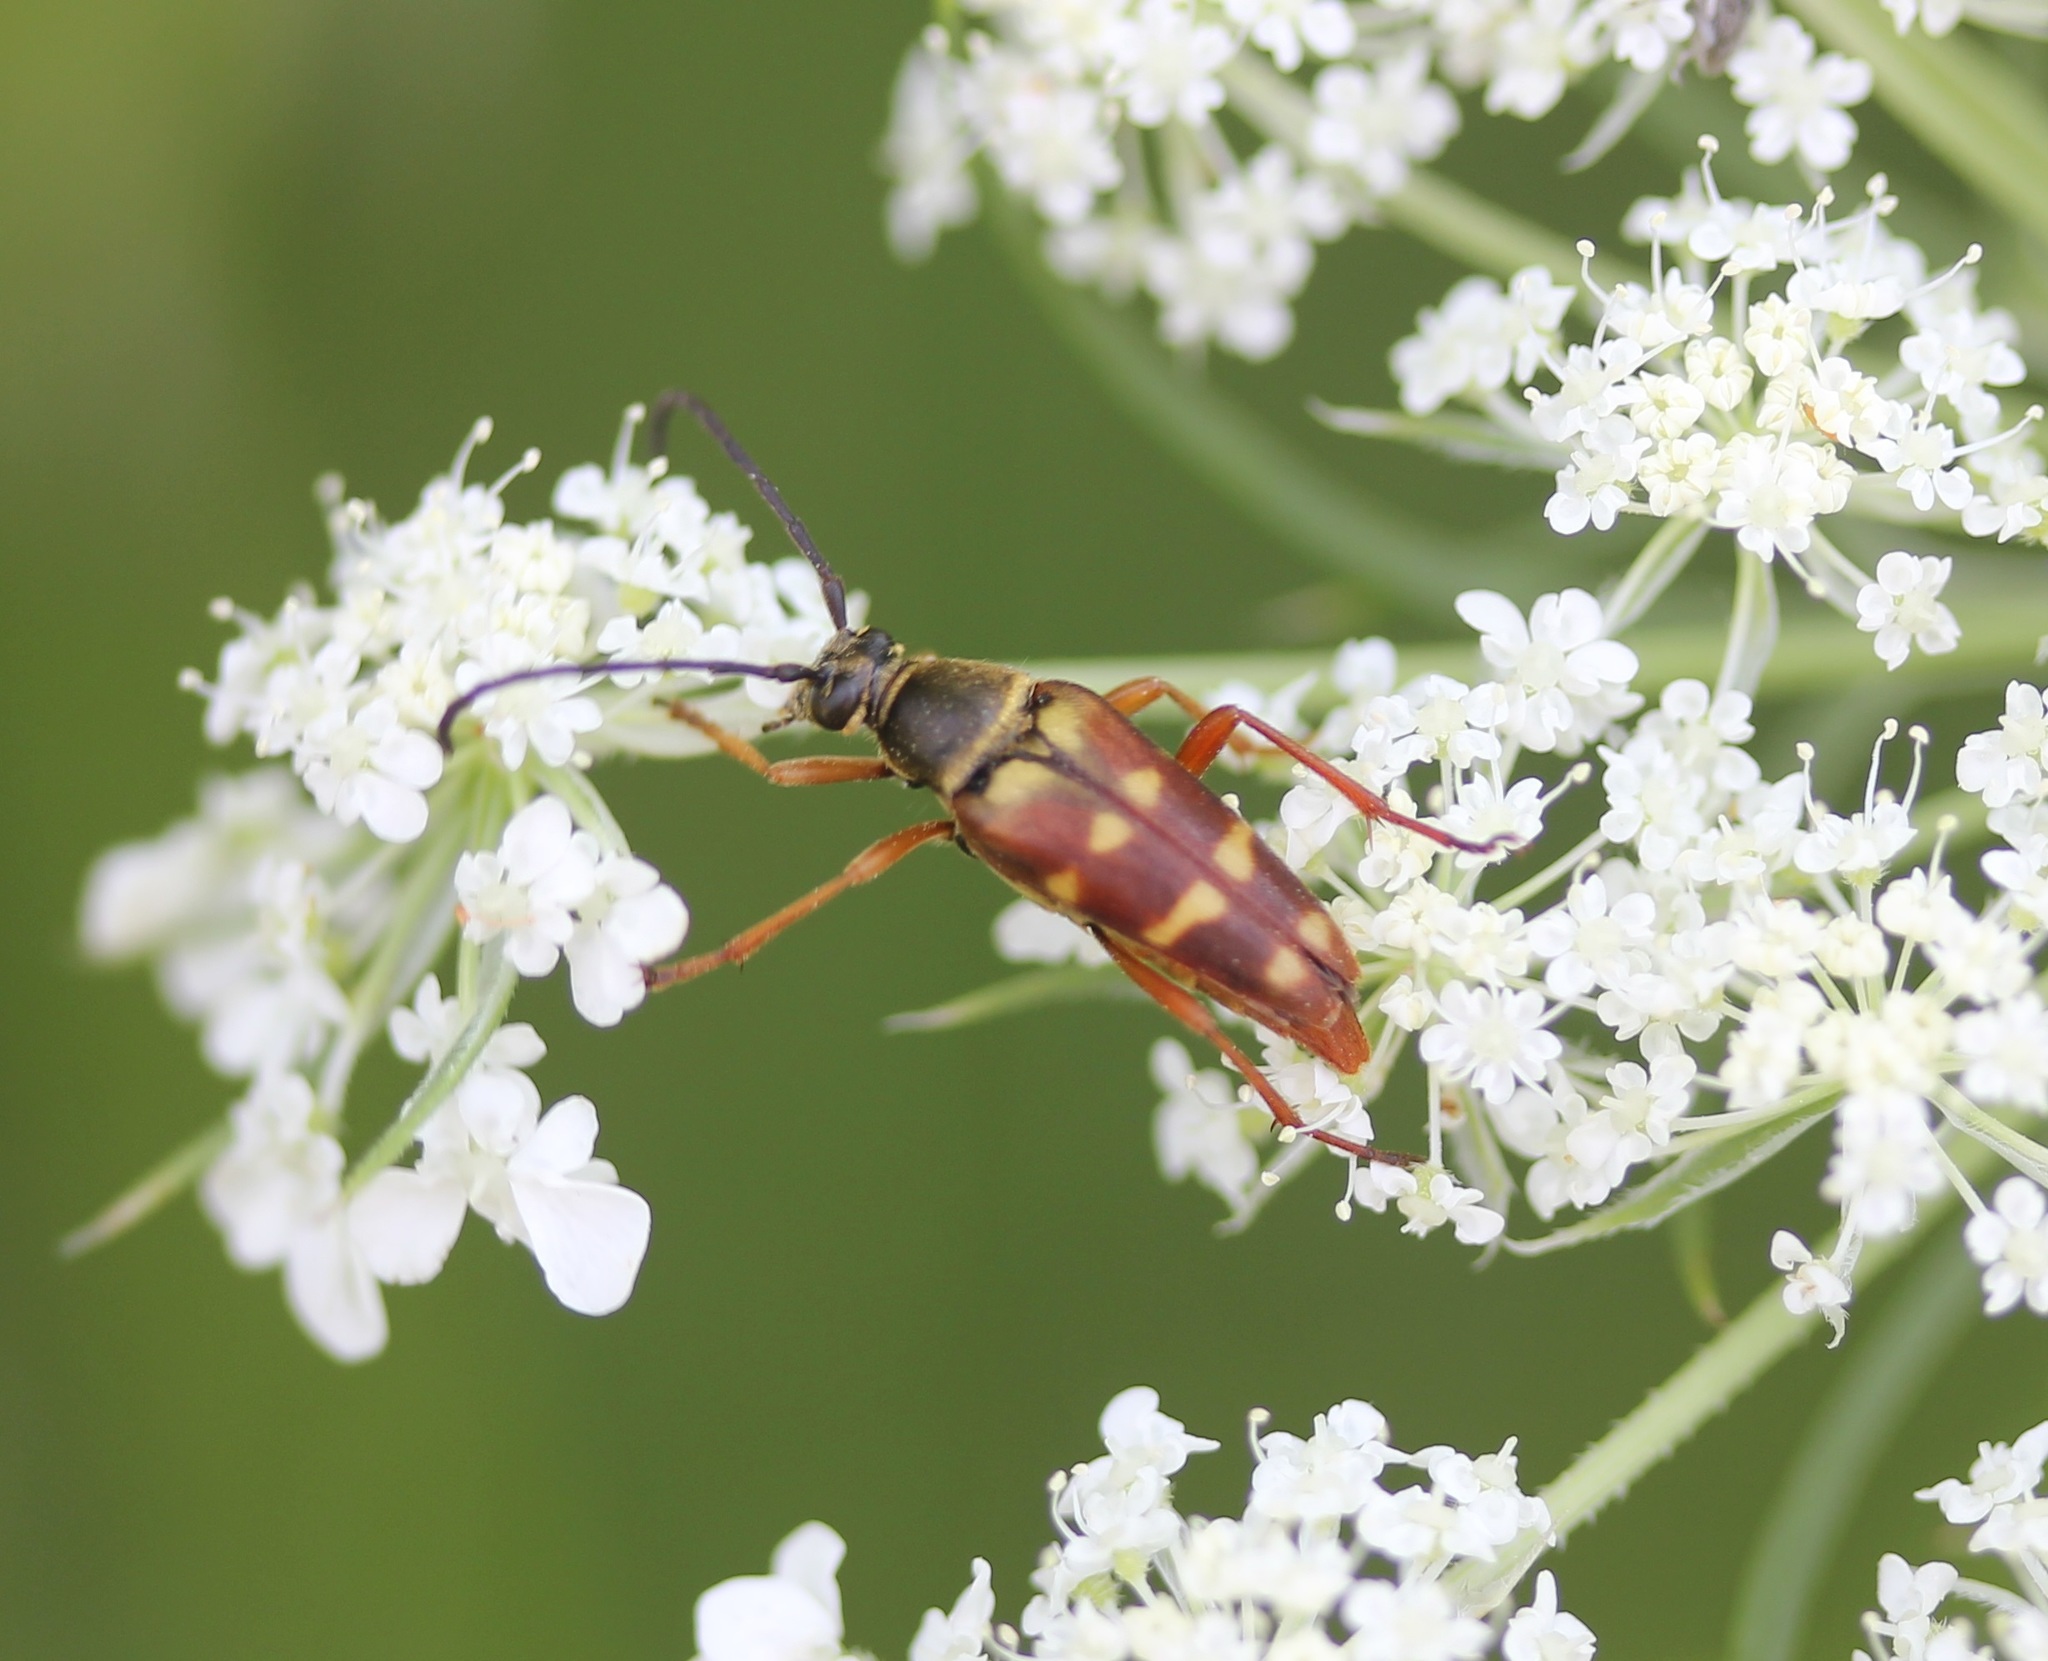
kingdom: Animalia
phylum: Arthropoda
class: Insecta
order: Coleoptera
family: Cerambycidae
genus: Typocerus
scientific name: Typocerus velutinus
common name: Banded longhorn beetle
